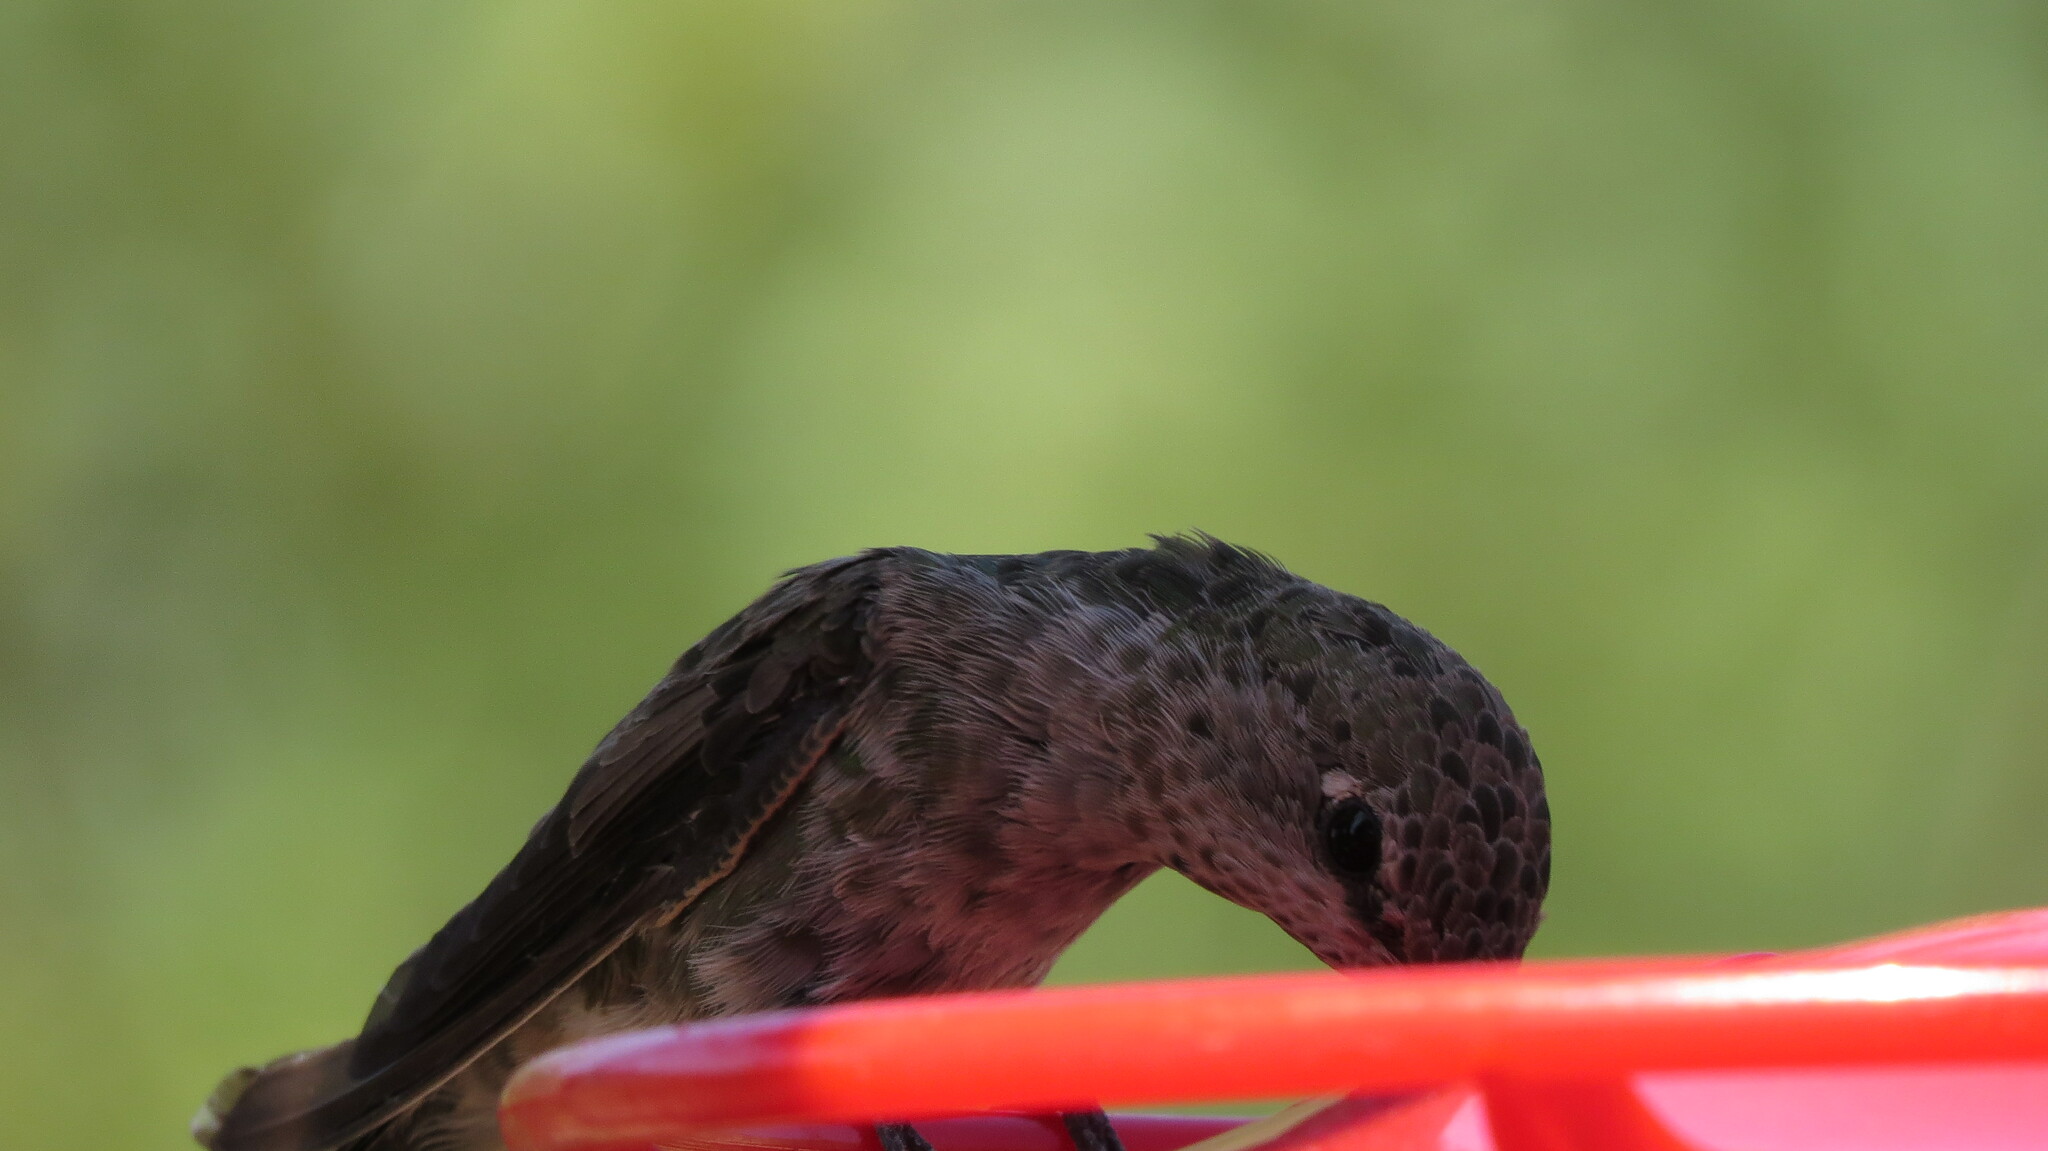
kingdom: Animalia
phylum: Chordata
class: Aves
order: Apodiformes
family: Trochilidae
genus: Archilochus
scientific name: Archilochus alexandri
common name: Black-chinned hummingbird
